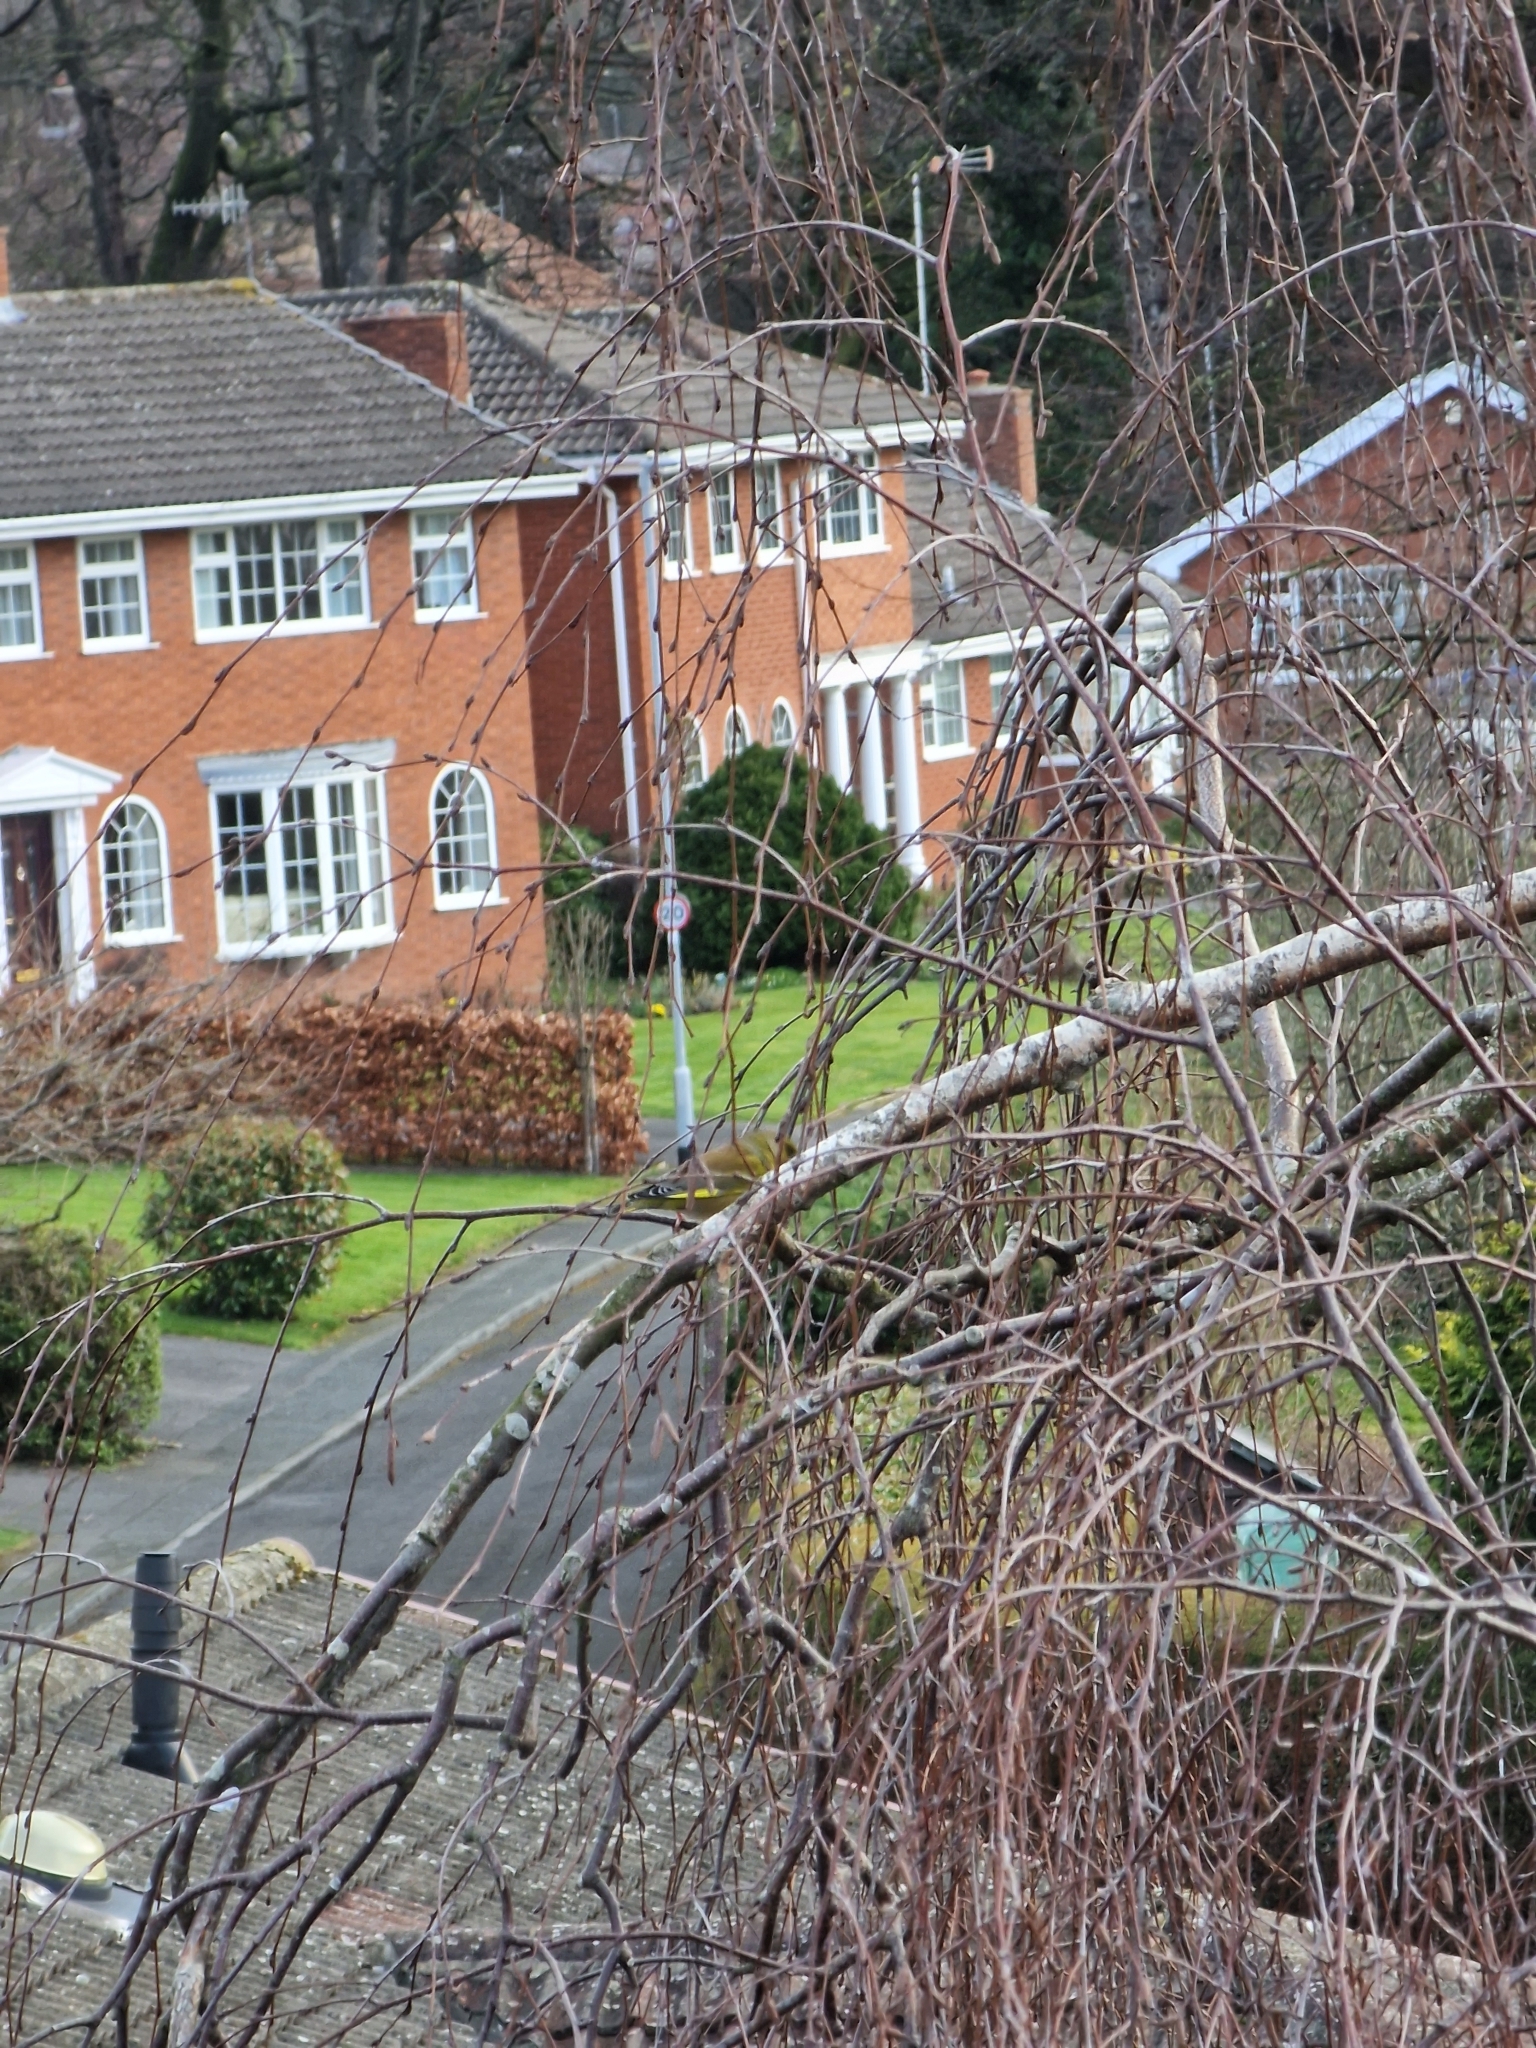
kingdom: Plantae
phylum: Tracheophyta
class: Liliopsida
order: Poales
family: Poaceae
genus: Chloris
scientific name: Chloris chloris
